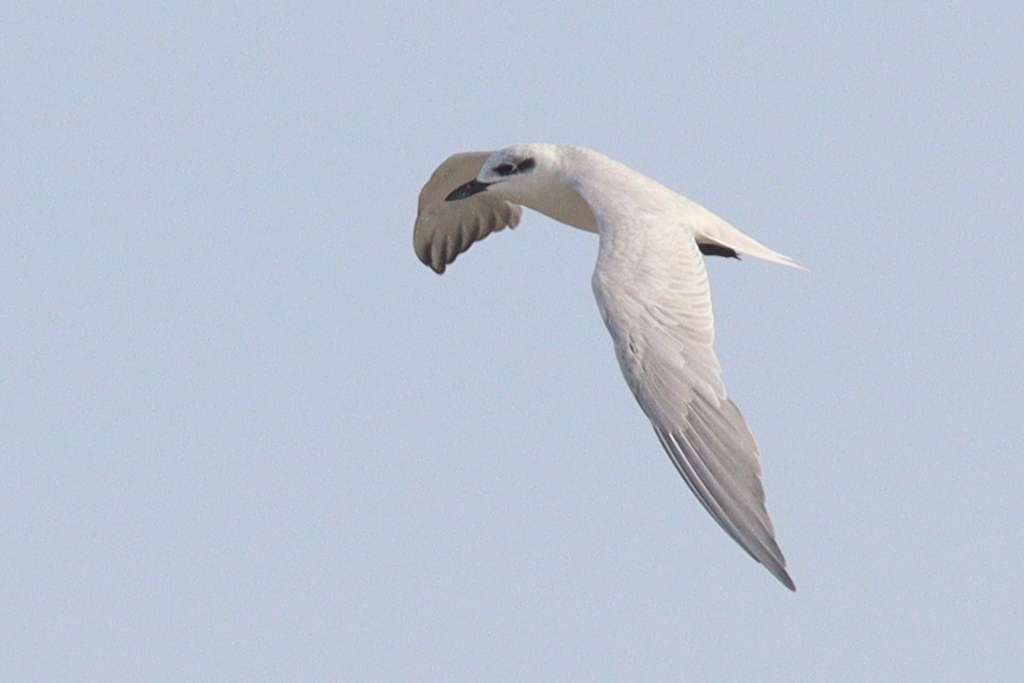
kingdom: Animalia
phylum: Chordata
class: Aves
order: Charadriiformes
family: Laridae
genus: Gelochelidon
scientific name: Gelochelidon nilotica
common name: Gull-billed tern
